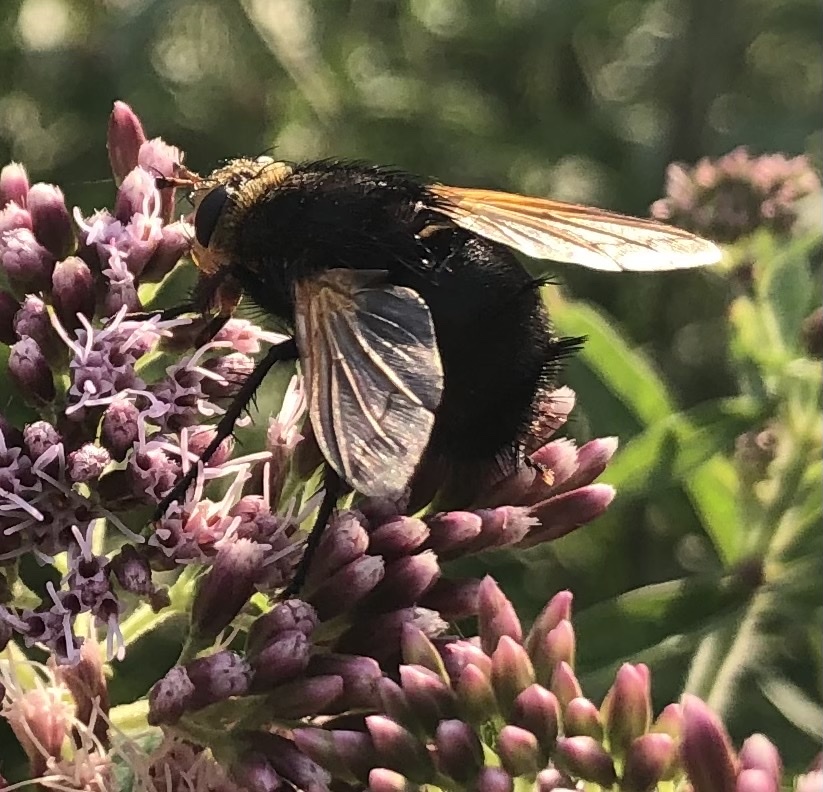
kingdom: Animalia
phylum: Arthropoda
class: Insecta
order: Diptera
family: Tachinidae
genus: Tachina
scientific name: Tachina grossa
